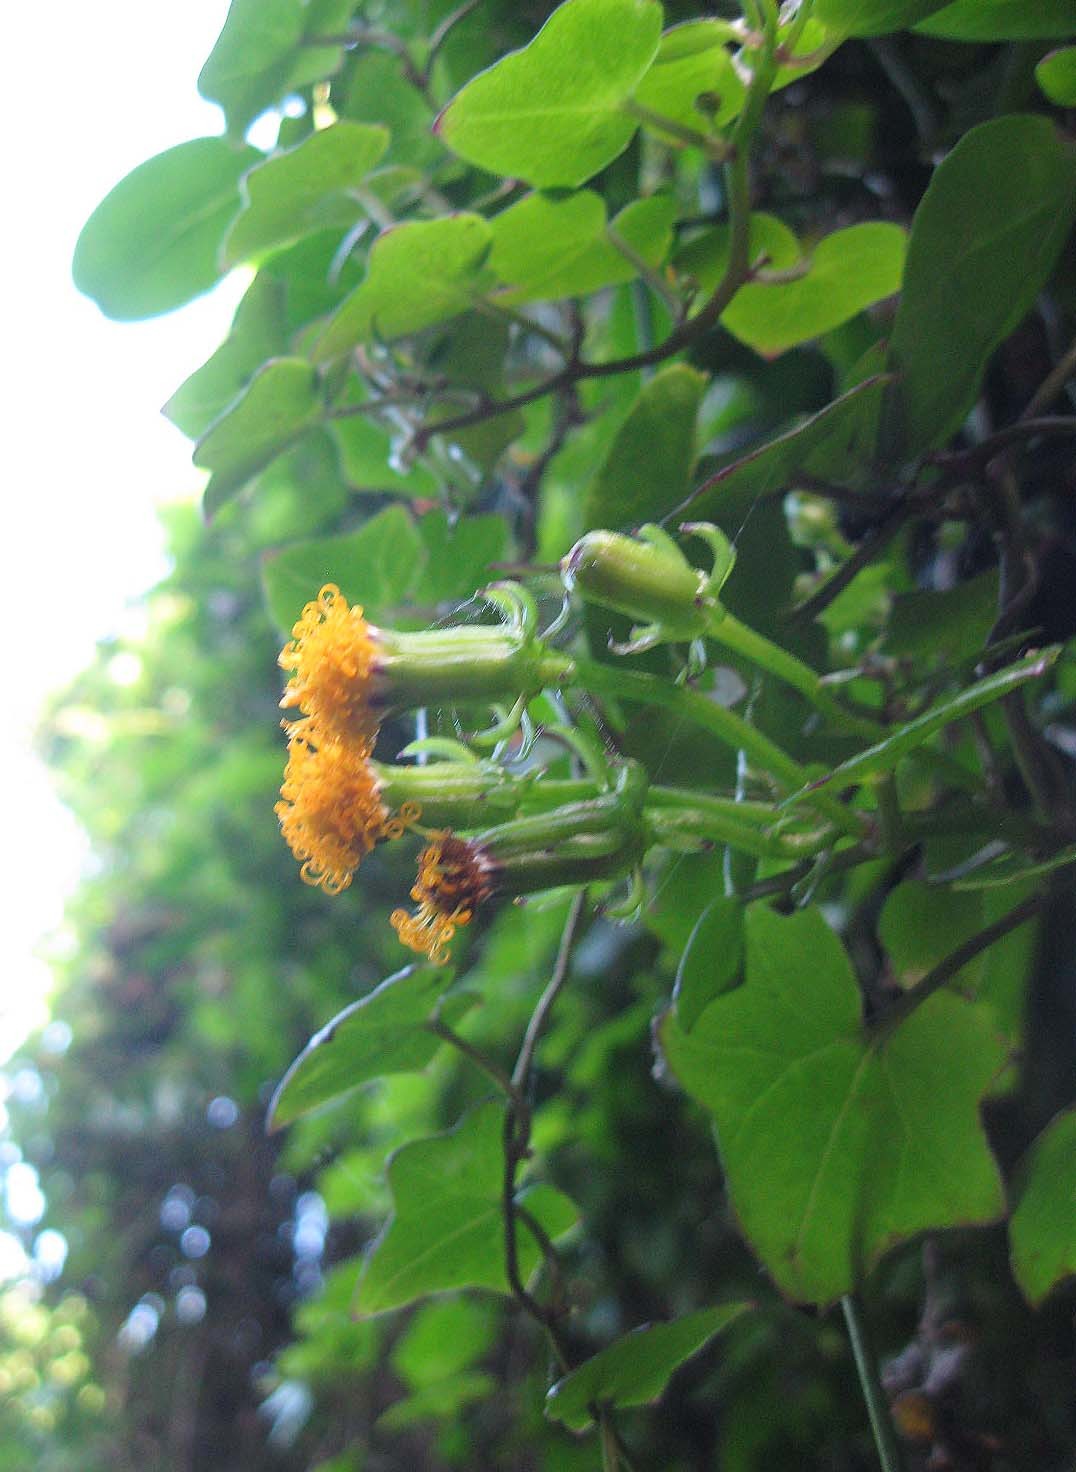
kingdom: Plantae
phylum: Tracheophyta
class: Magnoliopsida
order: Asterales
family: Asteraceae
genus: Senecio
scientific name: Senecio quinquelobus
